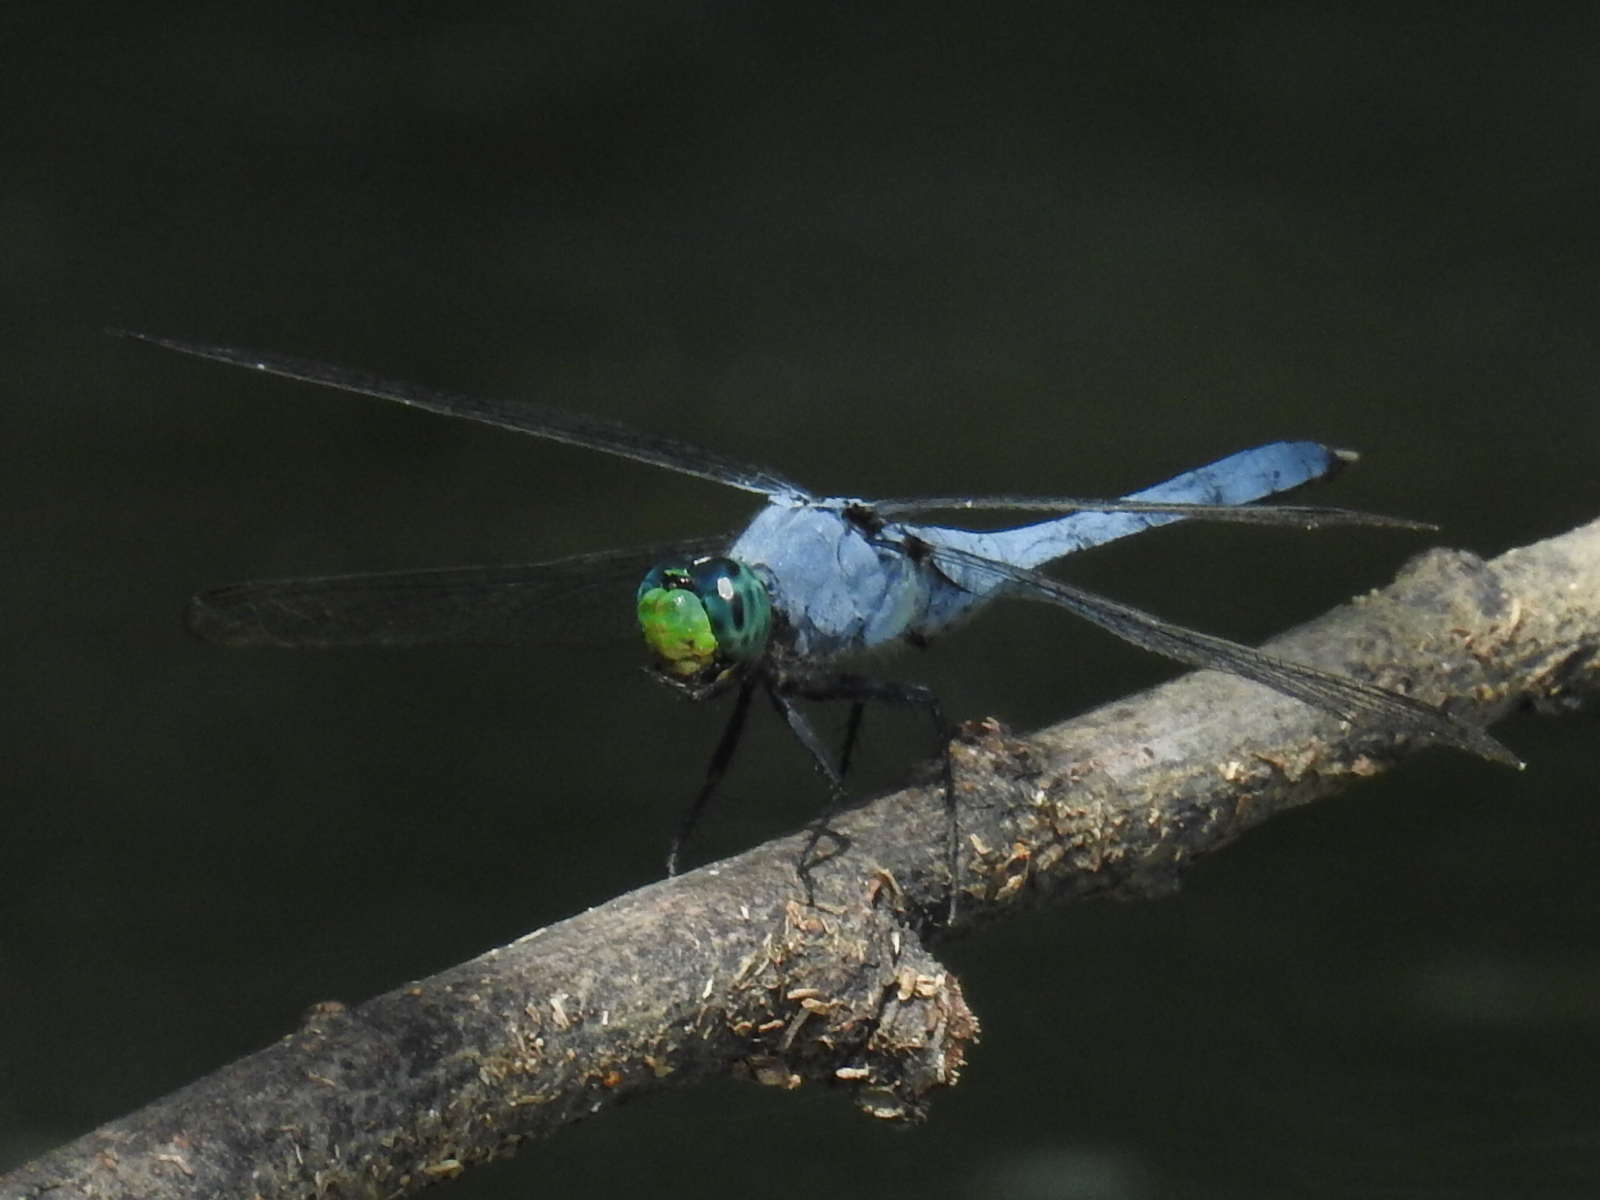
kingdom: Animalia
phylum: Arthropoda
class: Insecta
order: Odonata
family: Libellulidae
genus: Erythemis
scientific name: Erythemis simplicicollis
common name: Eastern pondhawk
